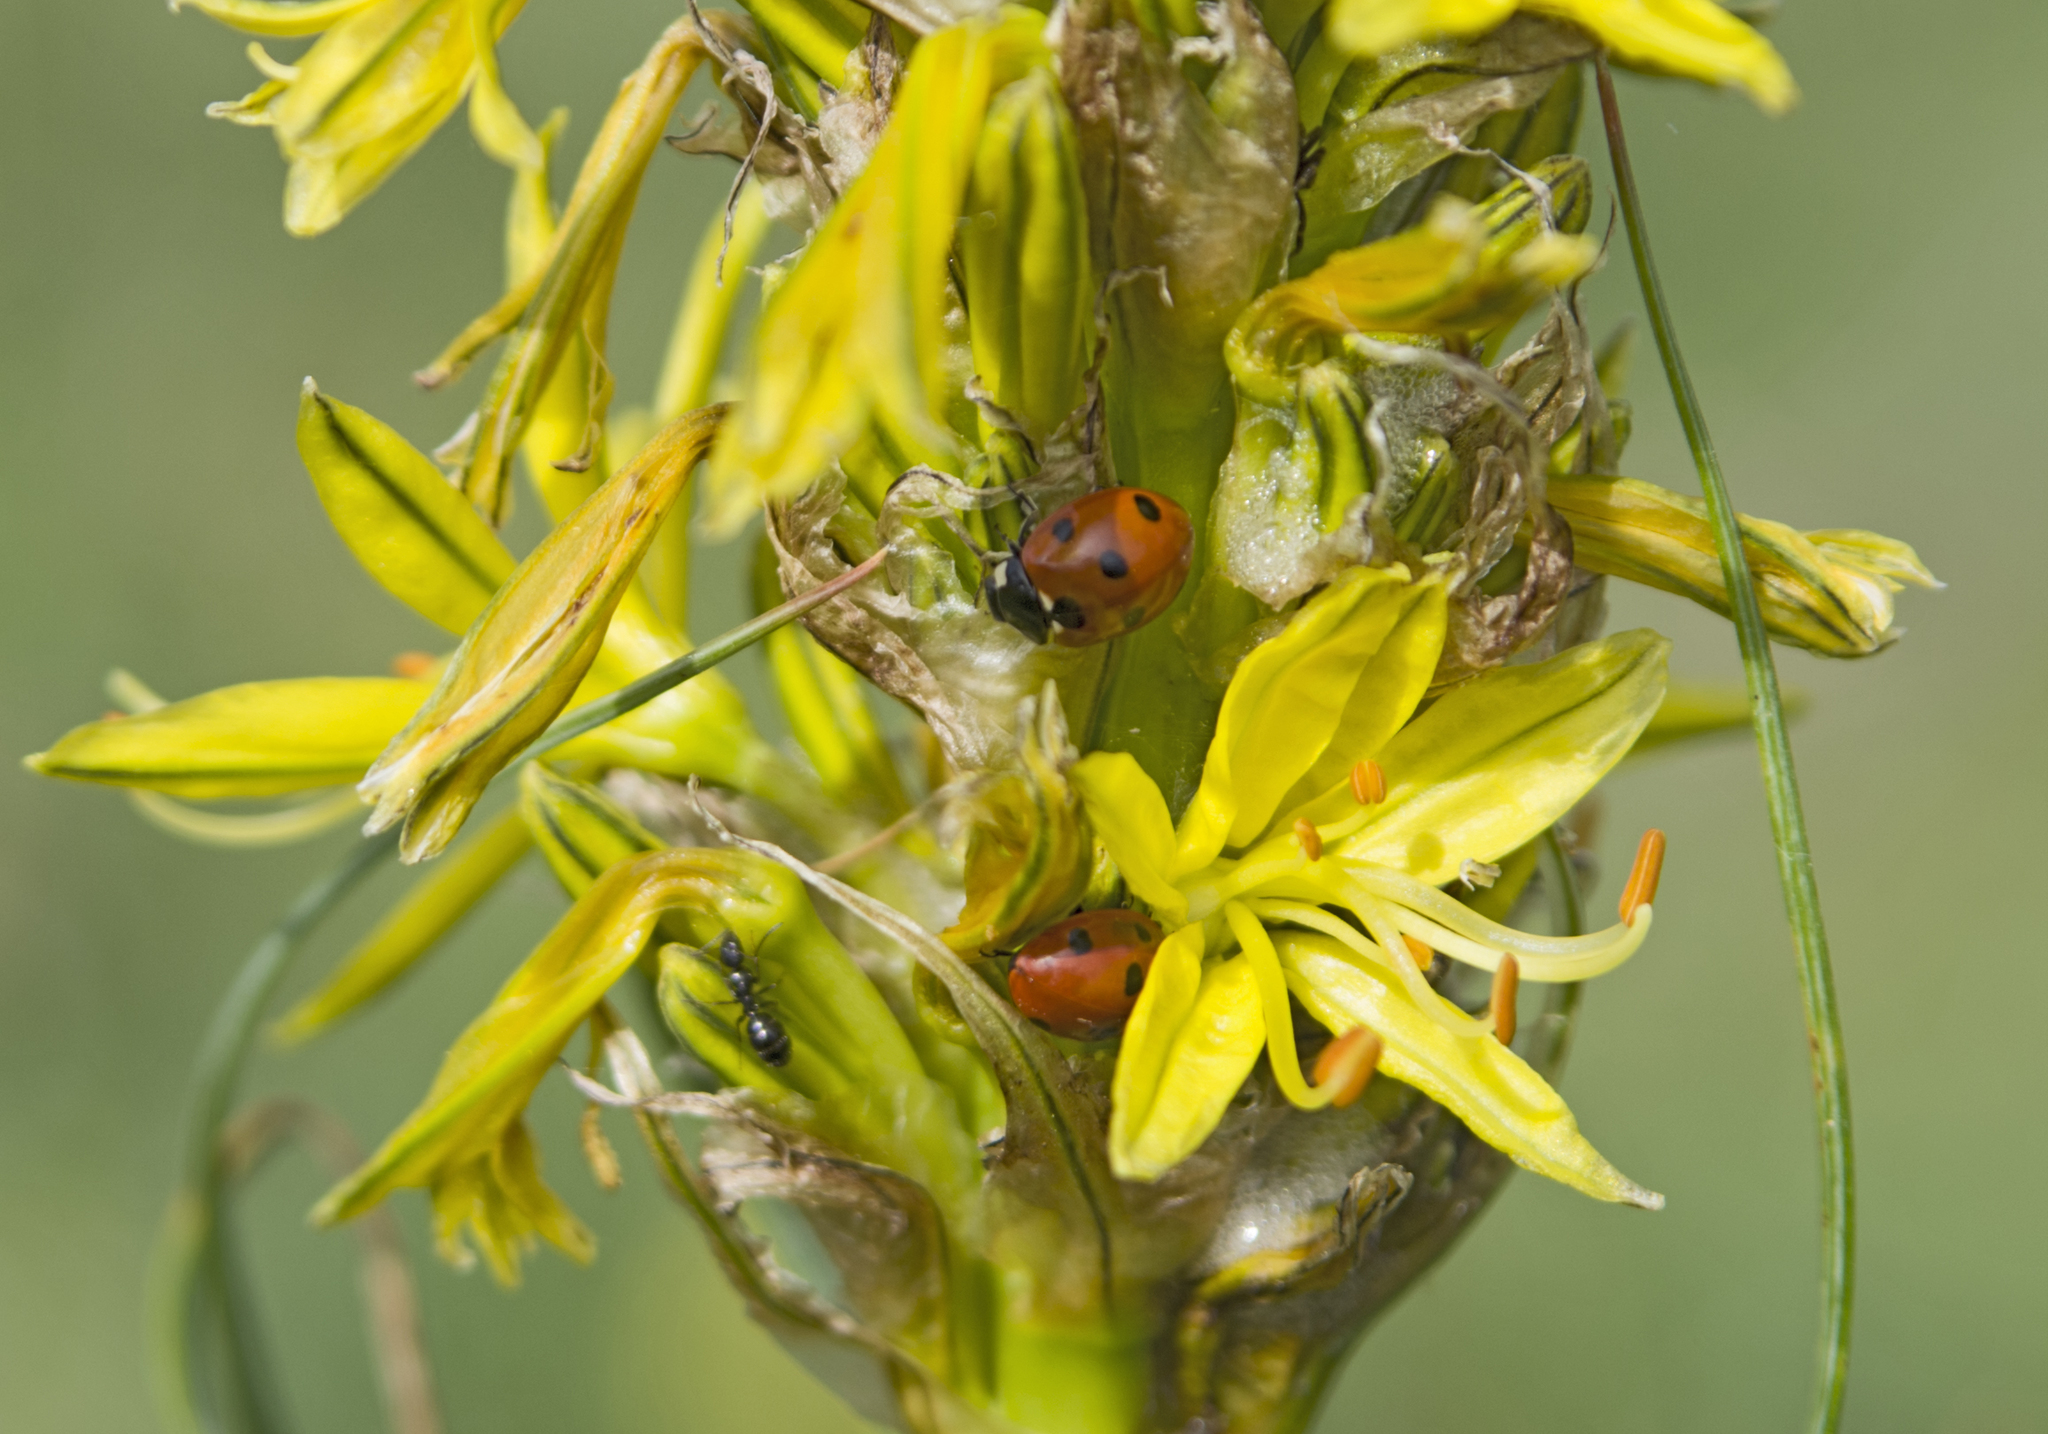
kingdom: Animalia
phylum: Arthropoda
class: Insecta
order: Coleoptera
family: Coccinellidae
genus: Coccinella
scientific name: Coccinella septempunctata
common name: Sevenspotted lady beetle
